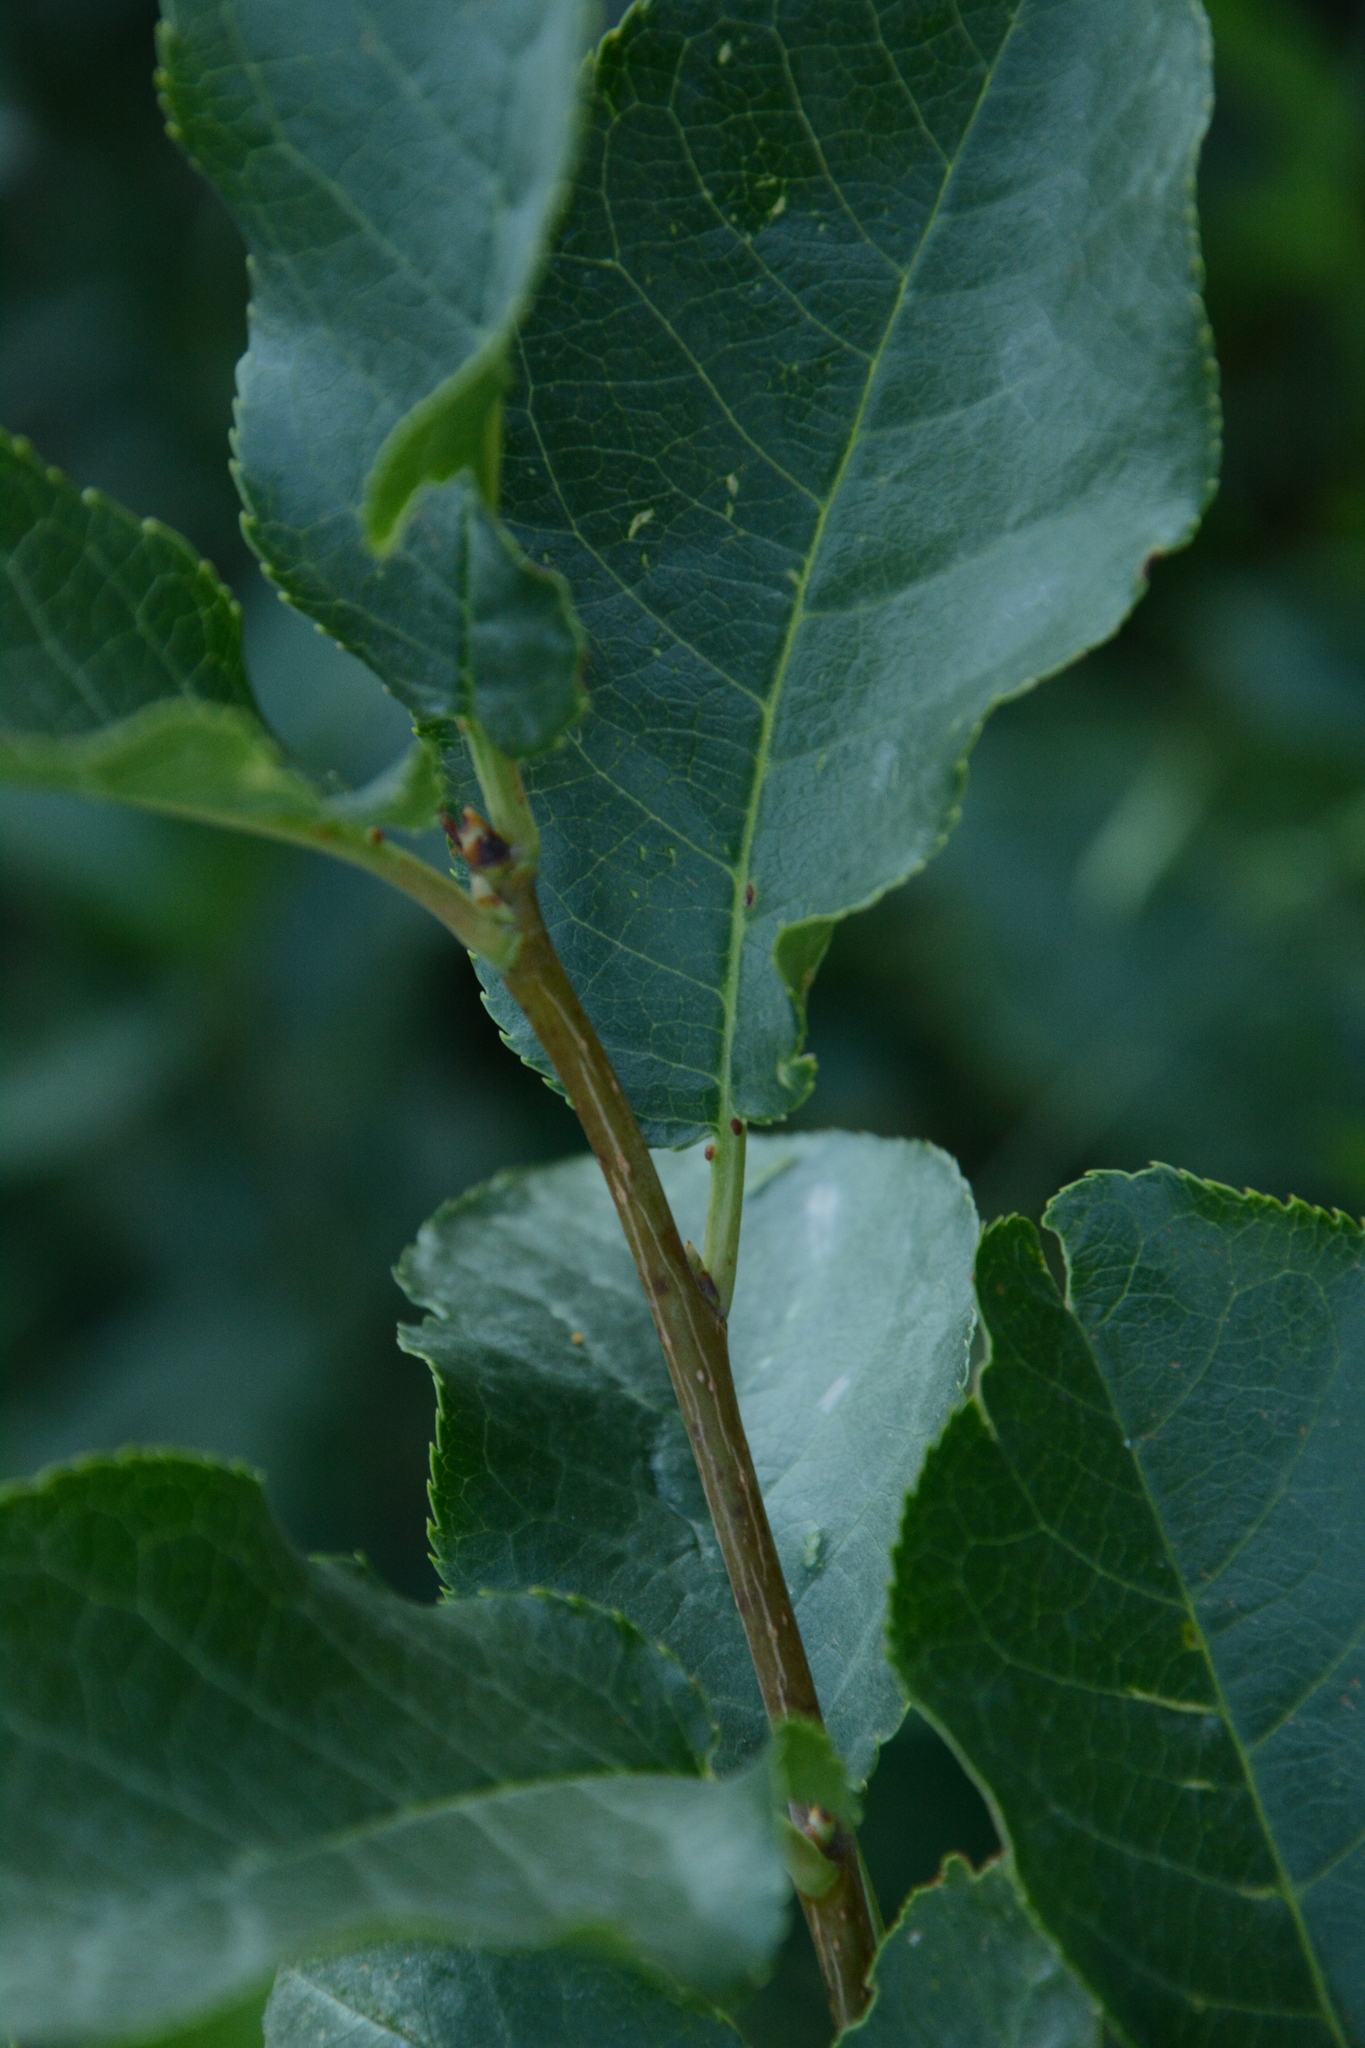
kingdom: Plantae
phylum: Tracheophyta
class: Magnoliopsida
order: Rosales
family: Rosaceae
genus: Prunus
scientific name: Prunus virginiana
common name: Chokecherry
